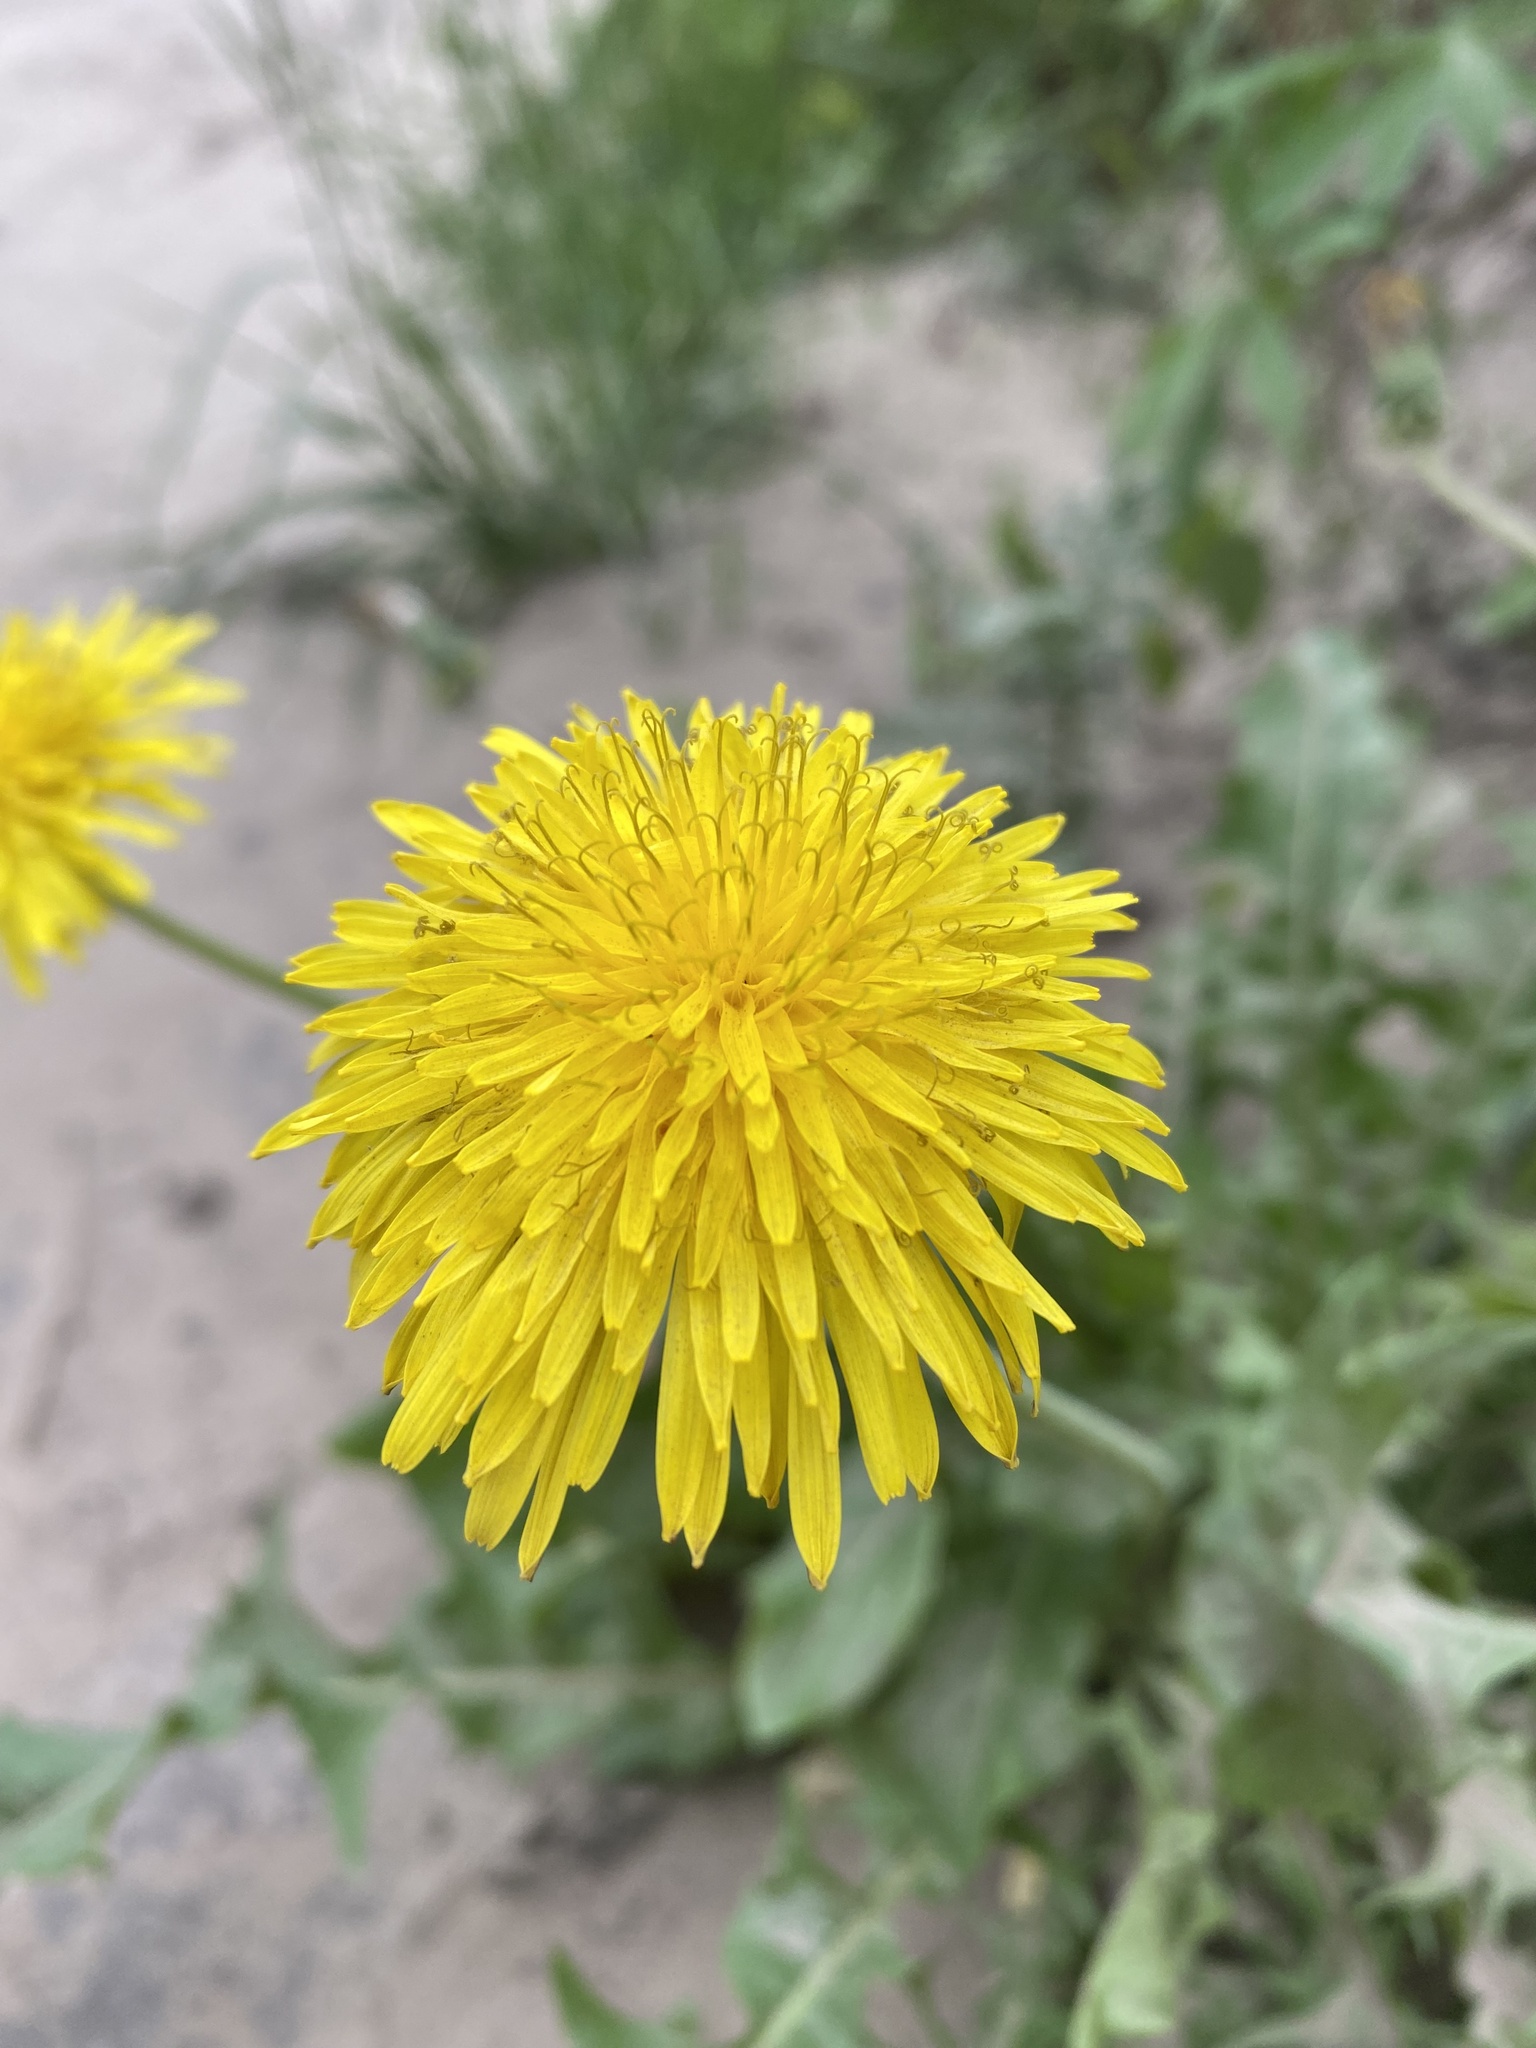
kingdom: Plantae
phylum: Tracheophyta
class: Magnoliopsida
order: Asterales
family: Asteraceae
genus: Taraxacum
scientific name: Taraxacum officinale
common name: Common dandelion
